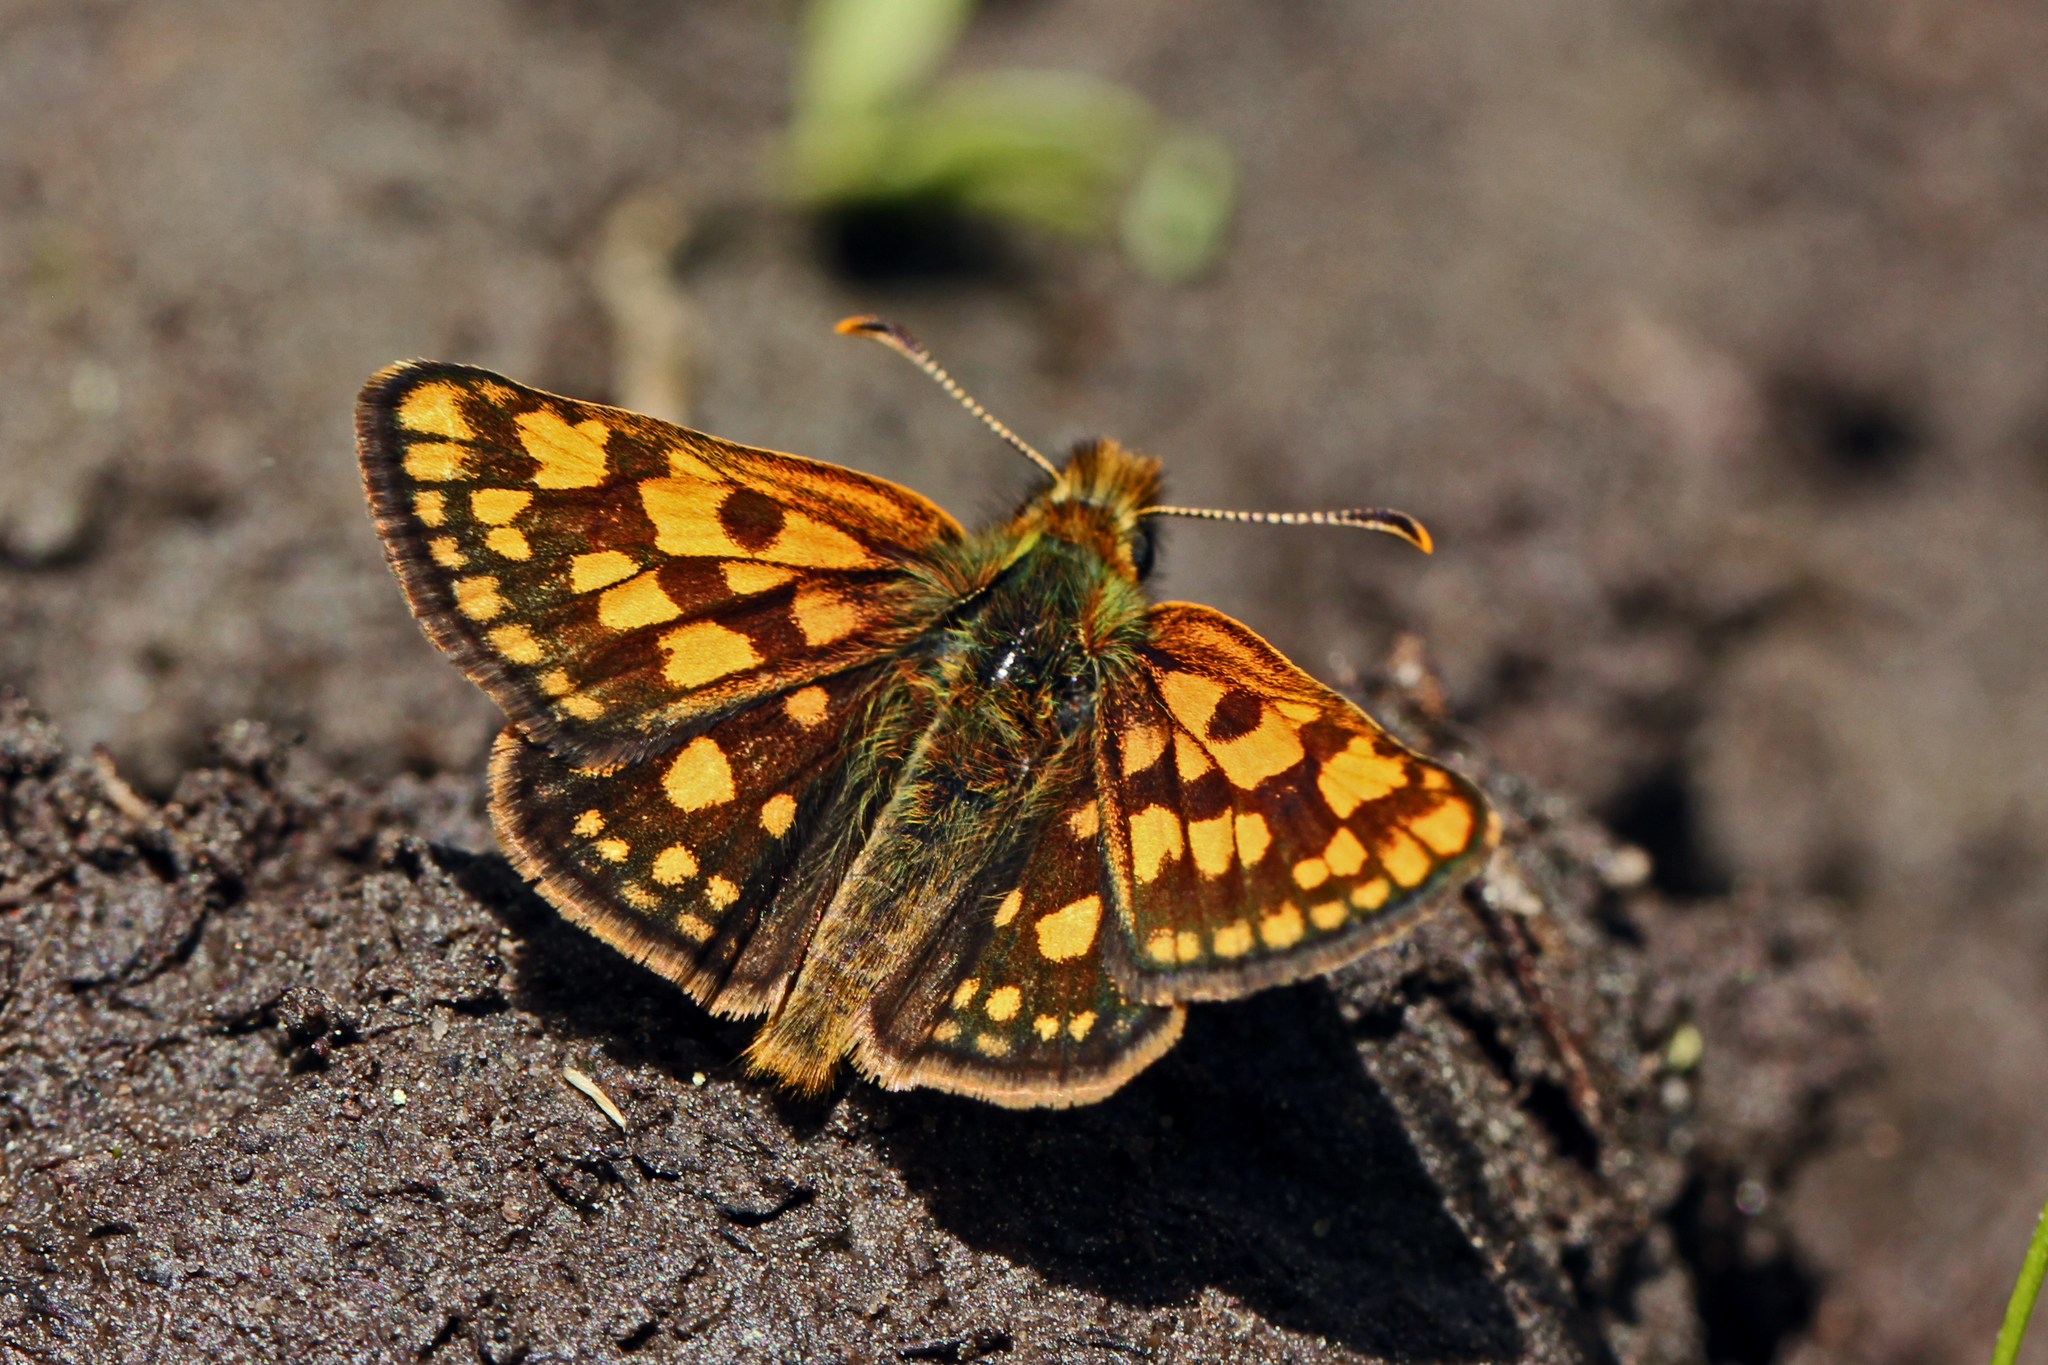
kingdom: Animalia
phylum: Arthropoda
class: Insecta
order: Lepidoptera
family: Hesperiidae
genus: Carterocephalus
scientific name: Carterocephalus skada
